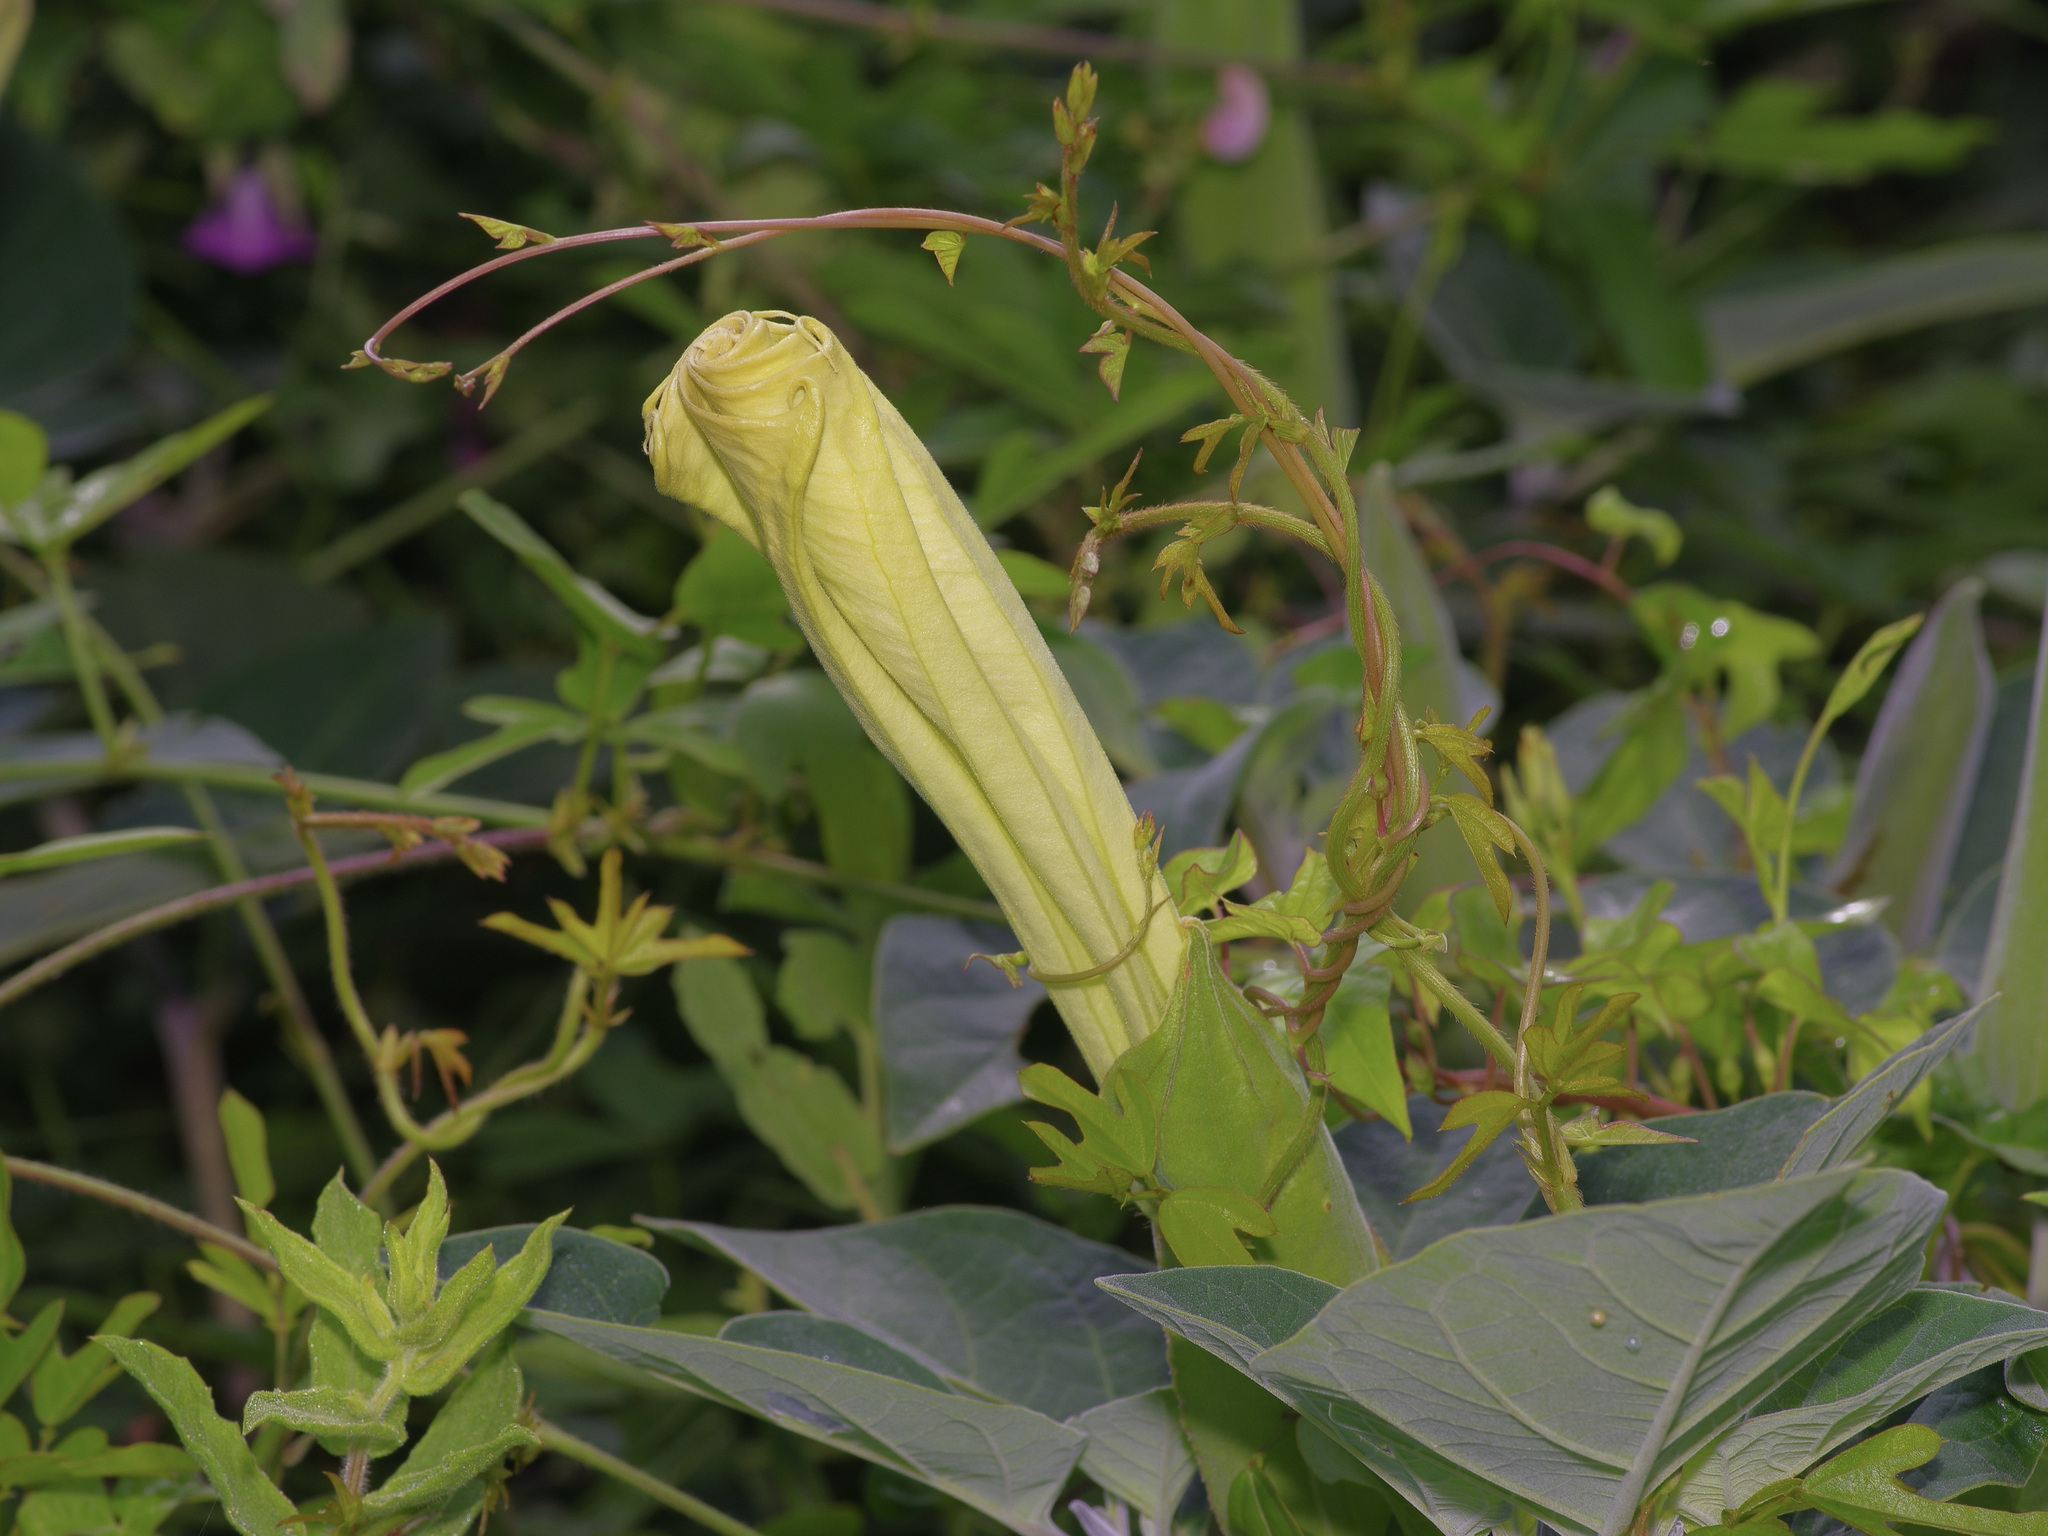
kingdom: Plantae
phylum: Tracheophyta
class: Magnoliopsida
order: Solanales
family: Solanaceae
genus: Datura
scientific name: Datura wrightii
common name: Sacred thorn-apple
